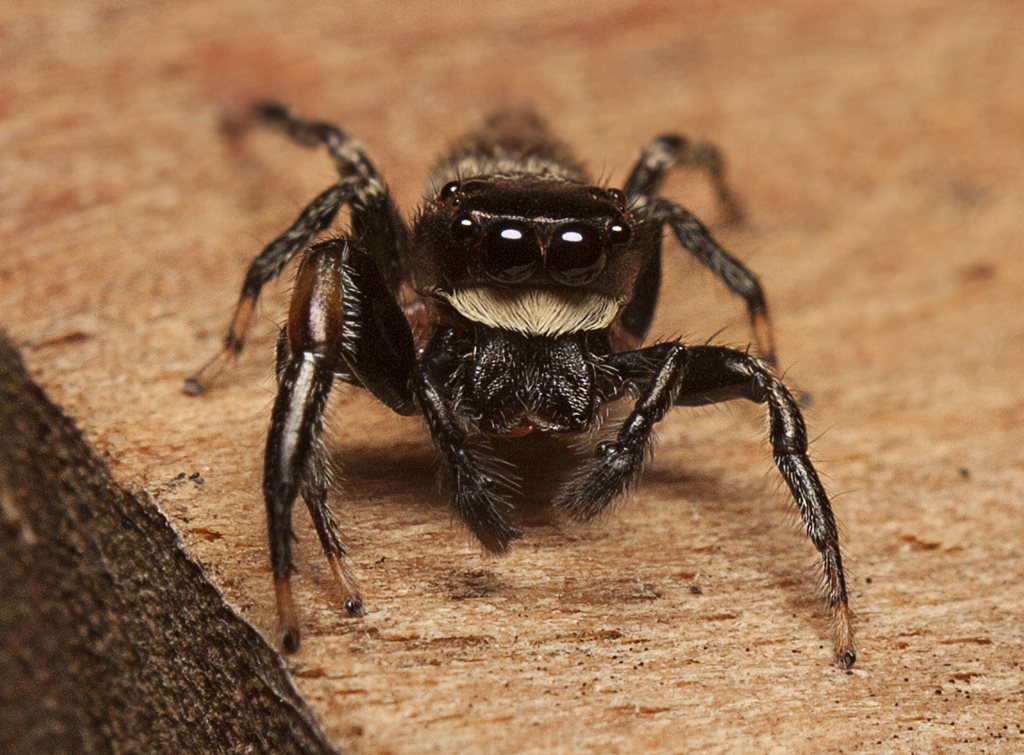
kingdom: Animalia
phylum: Arthropoda
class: Arachnida
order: Araneae
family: Salticidae
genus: Pungalina
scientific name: Pungalina albobarbata
